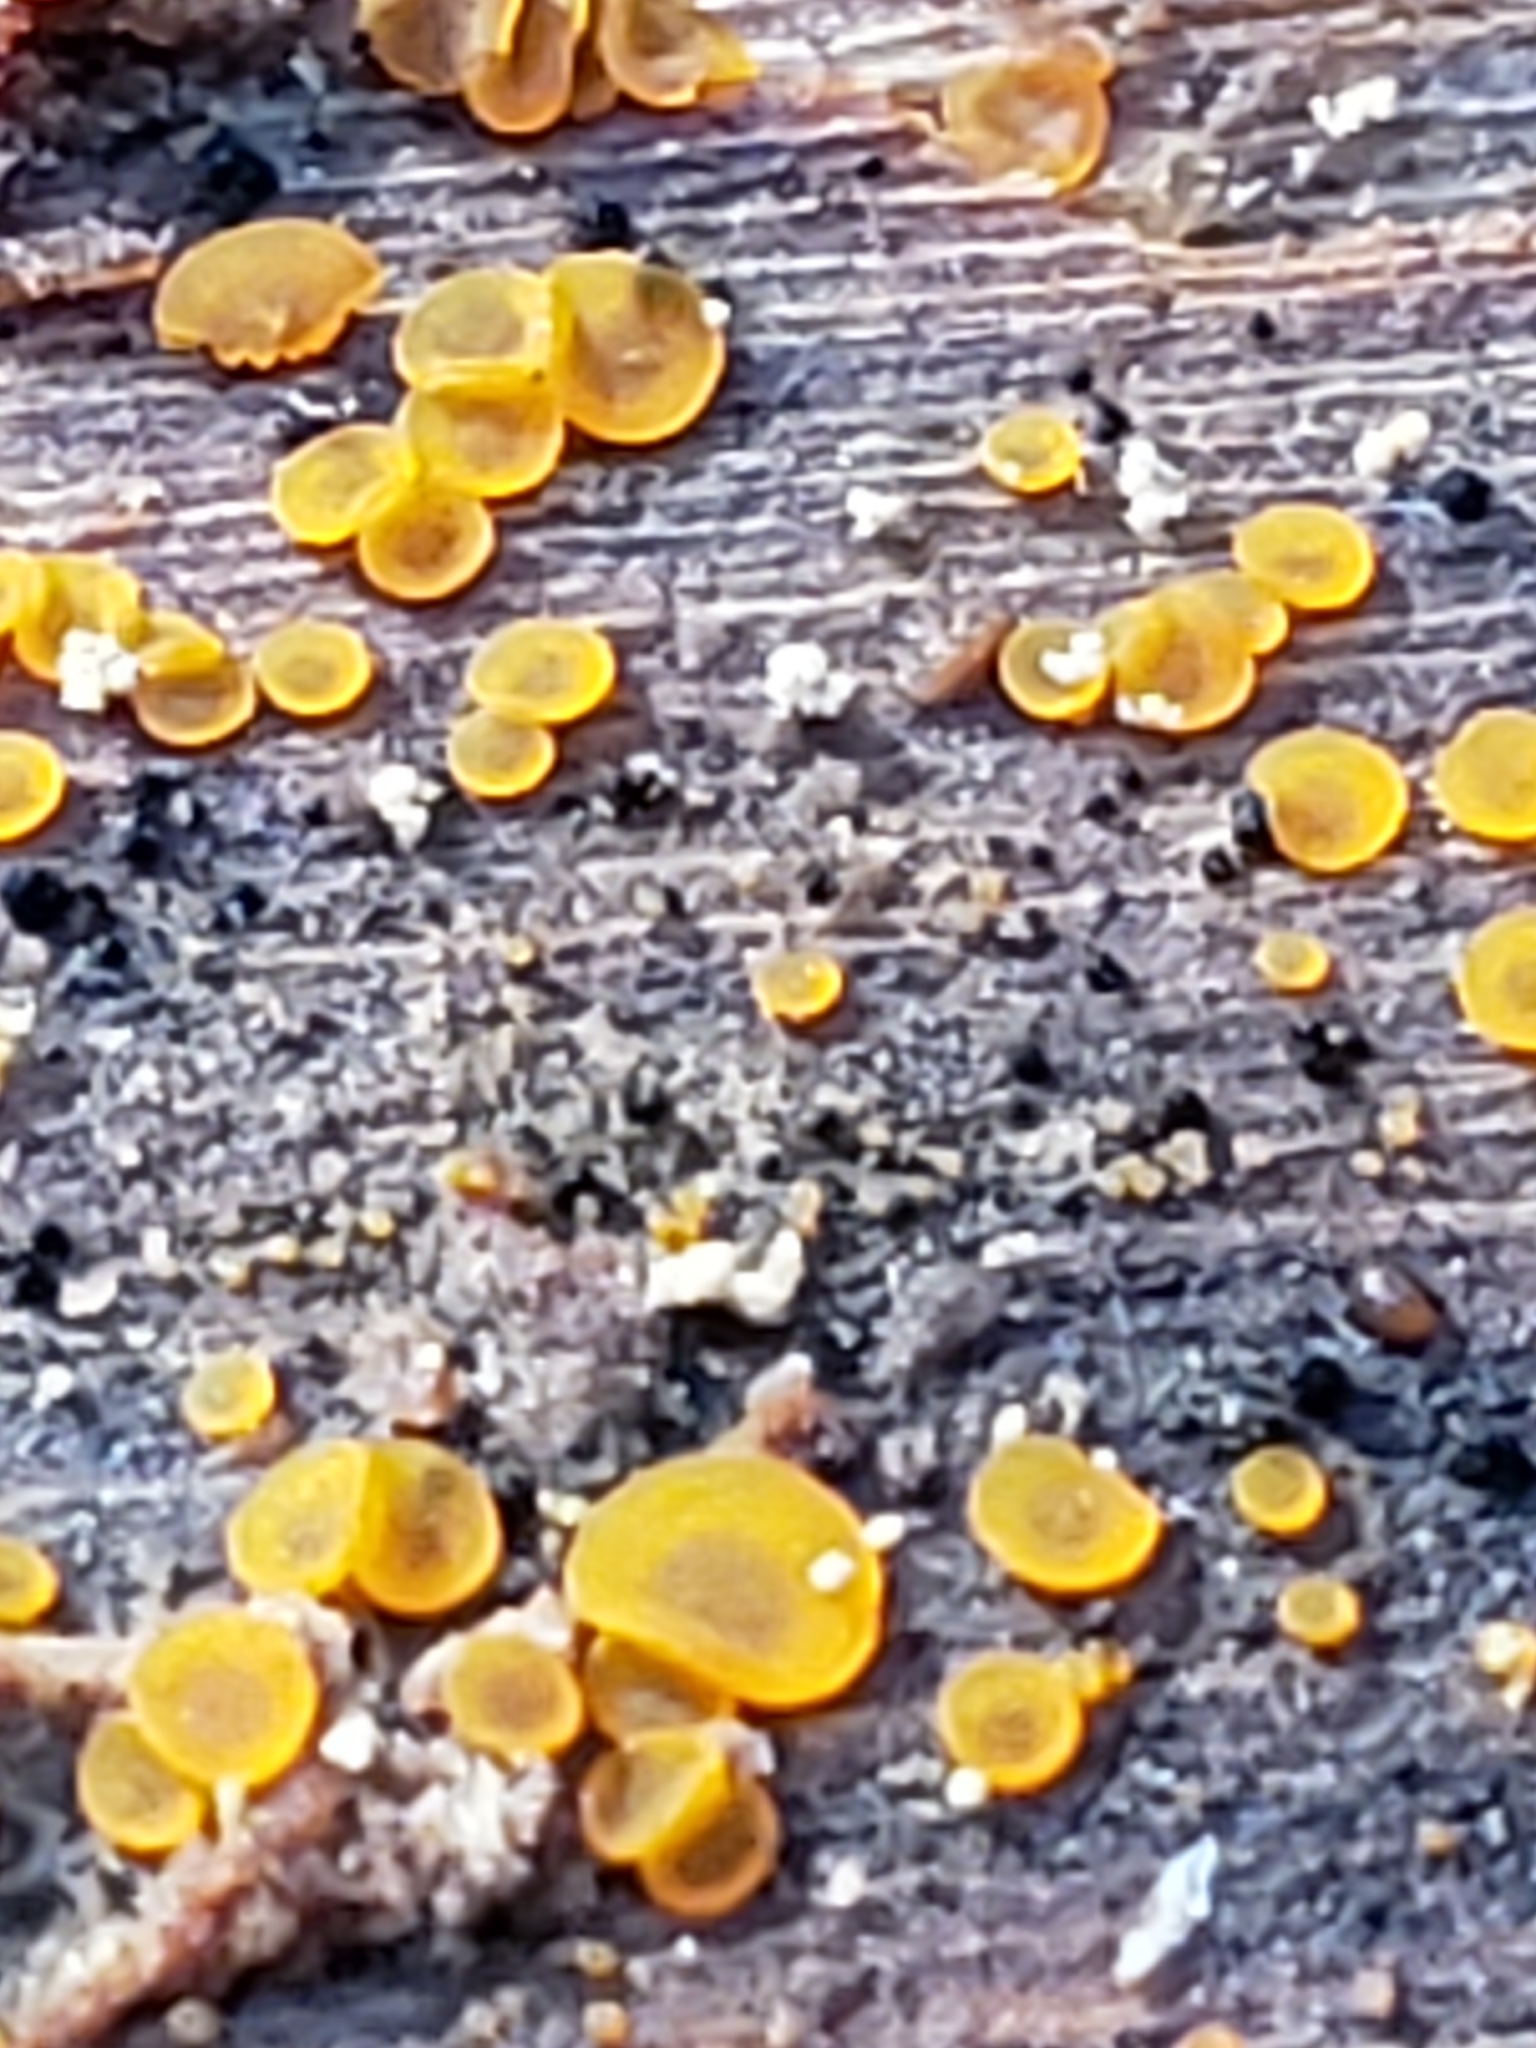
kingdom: Fungi
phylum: Ascomycota
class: Orbiliomycetes
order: Orbiliales
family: Orbiliaceae
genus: Orbilia
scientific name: Orbilia
